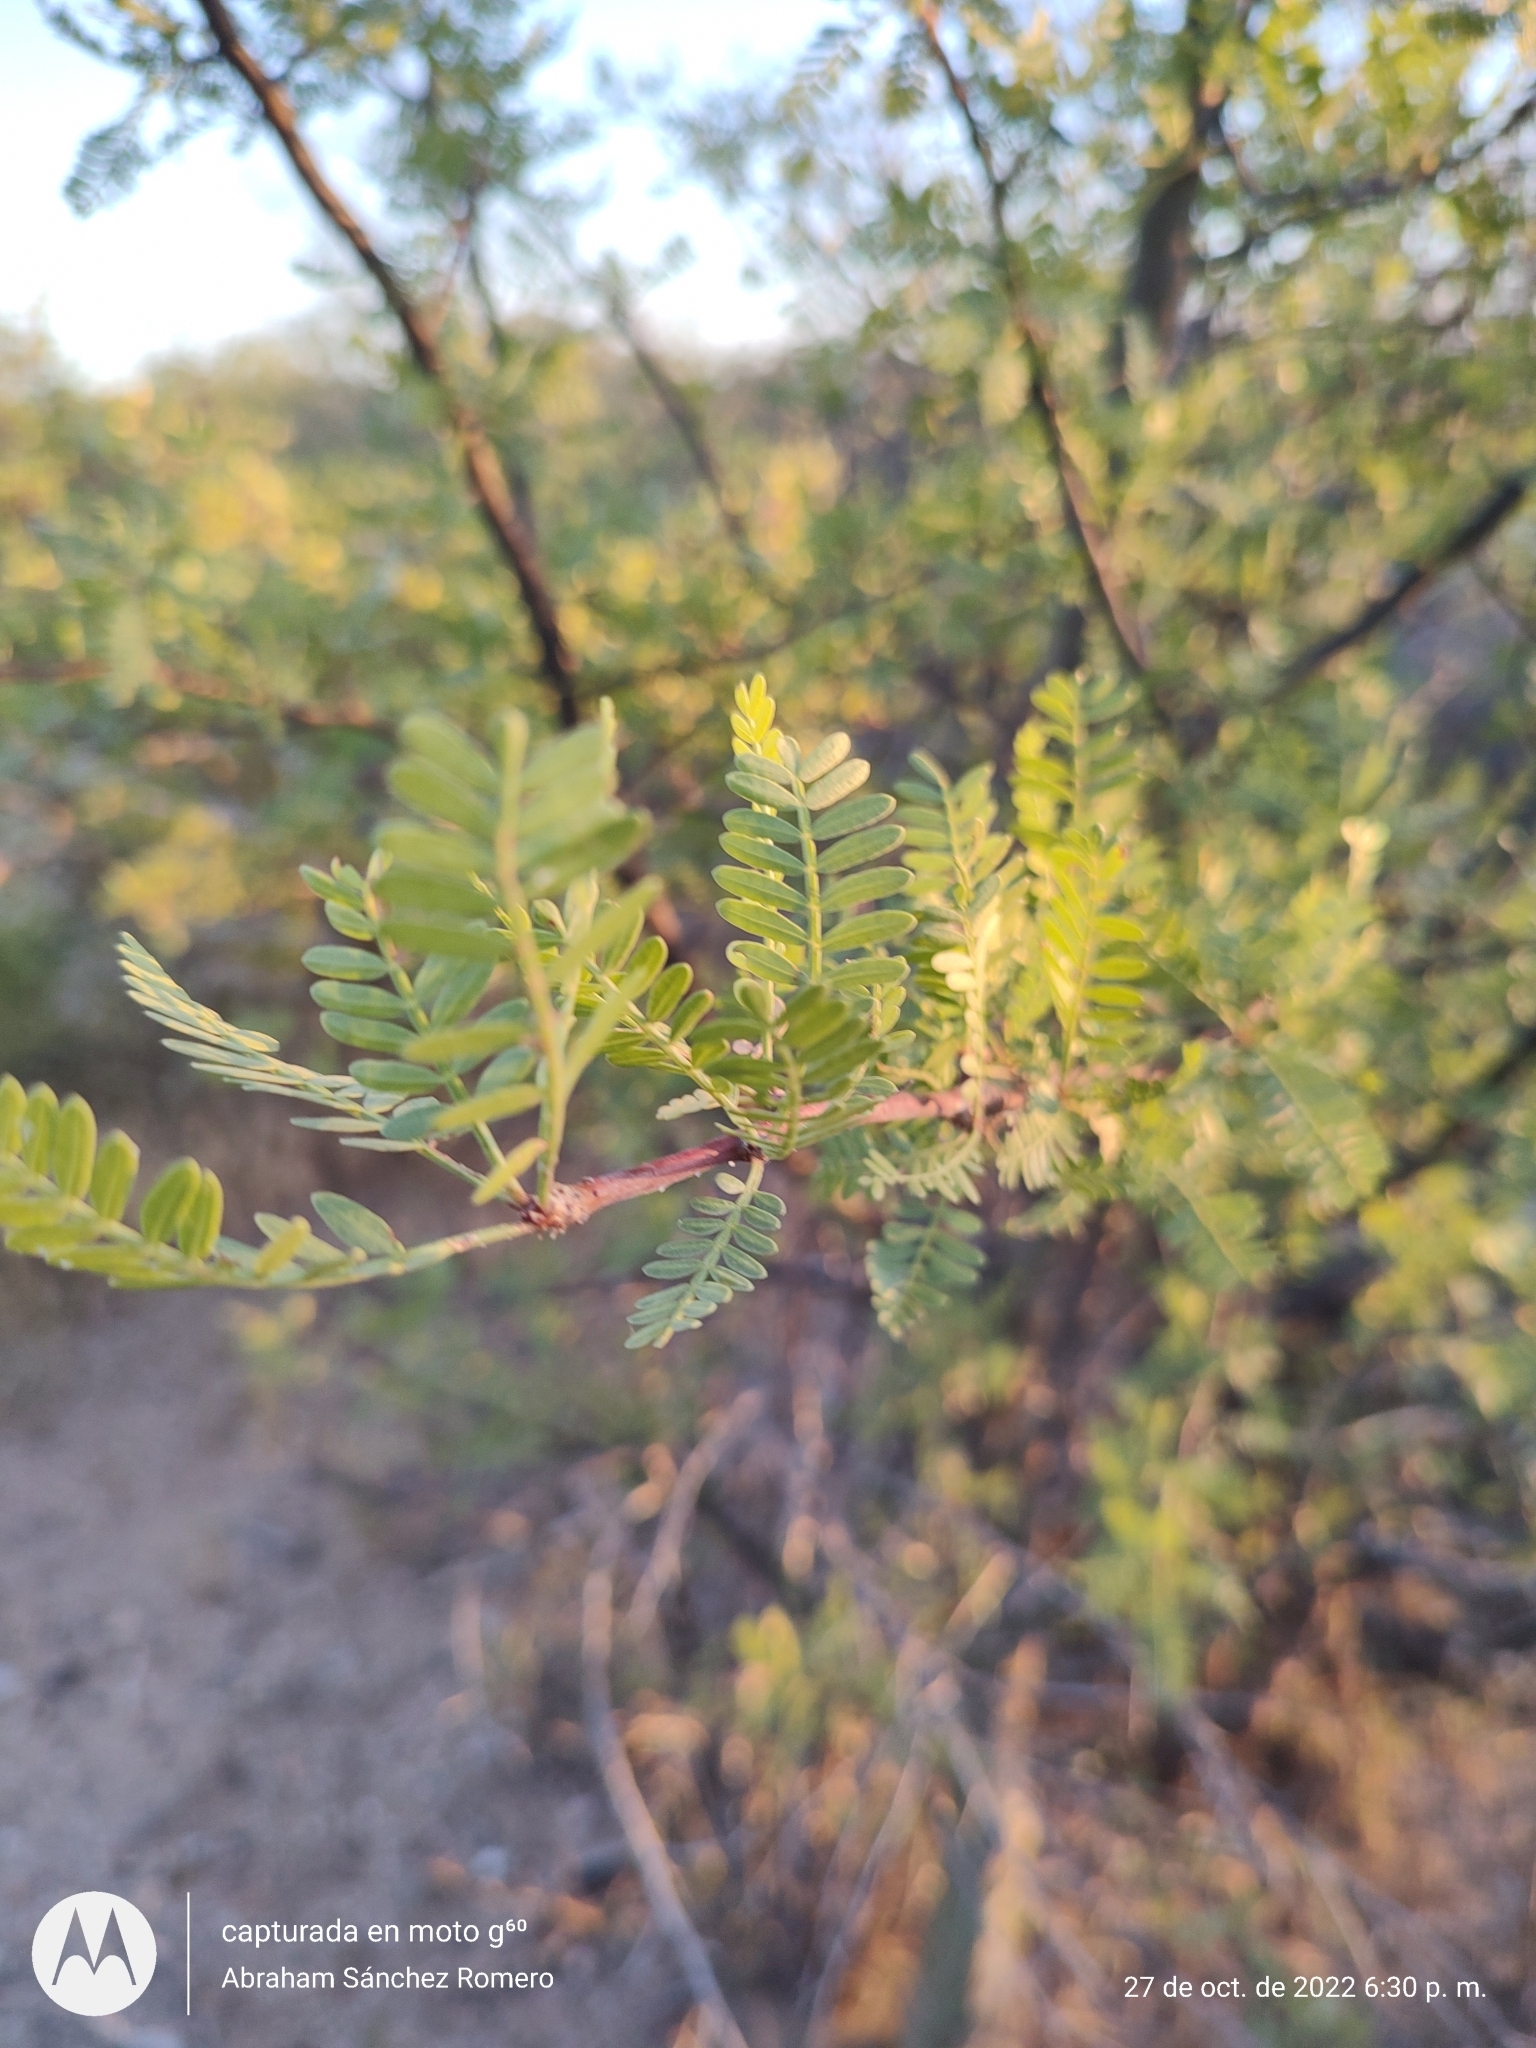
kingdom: Plantae
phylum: Tracheophyta
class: Magnoliopsida
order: Sapindales
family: Burseraceae
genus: Bursera
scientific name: Bursera microphylla
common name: Elephant tree
